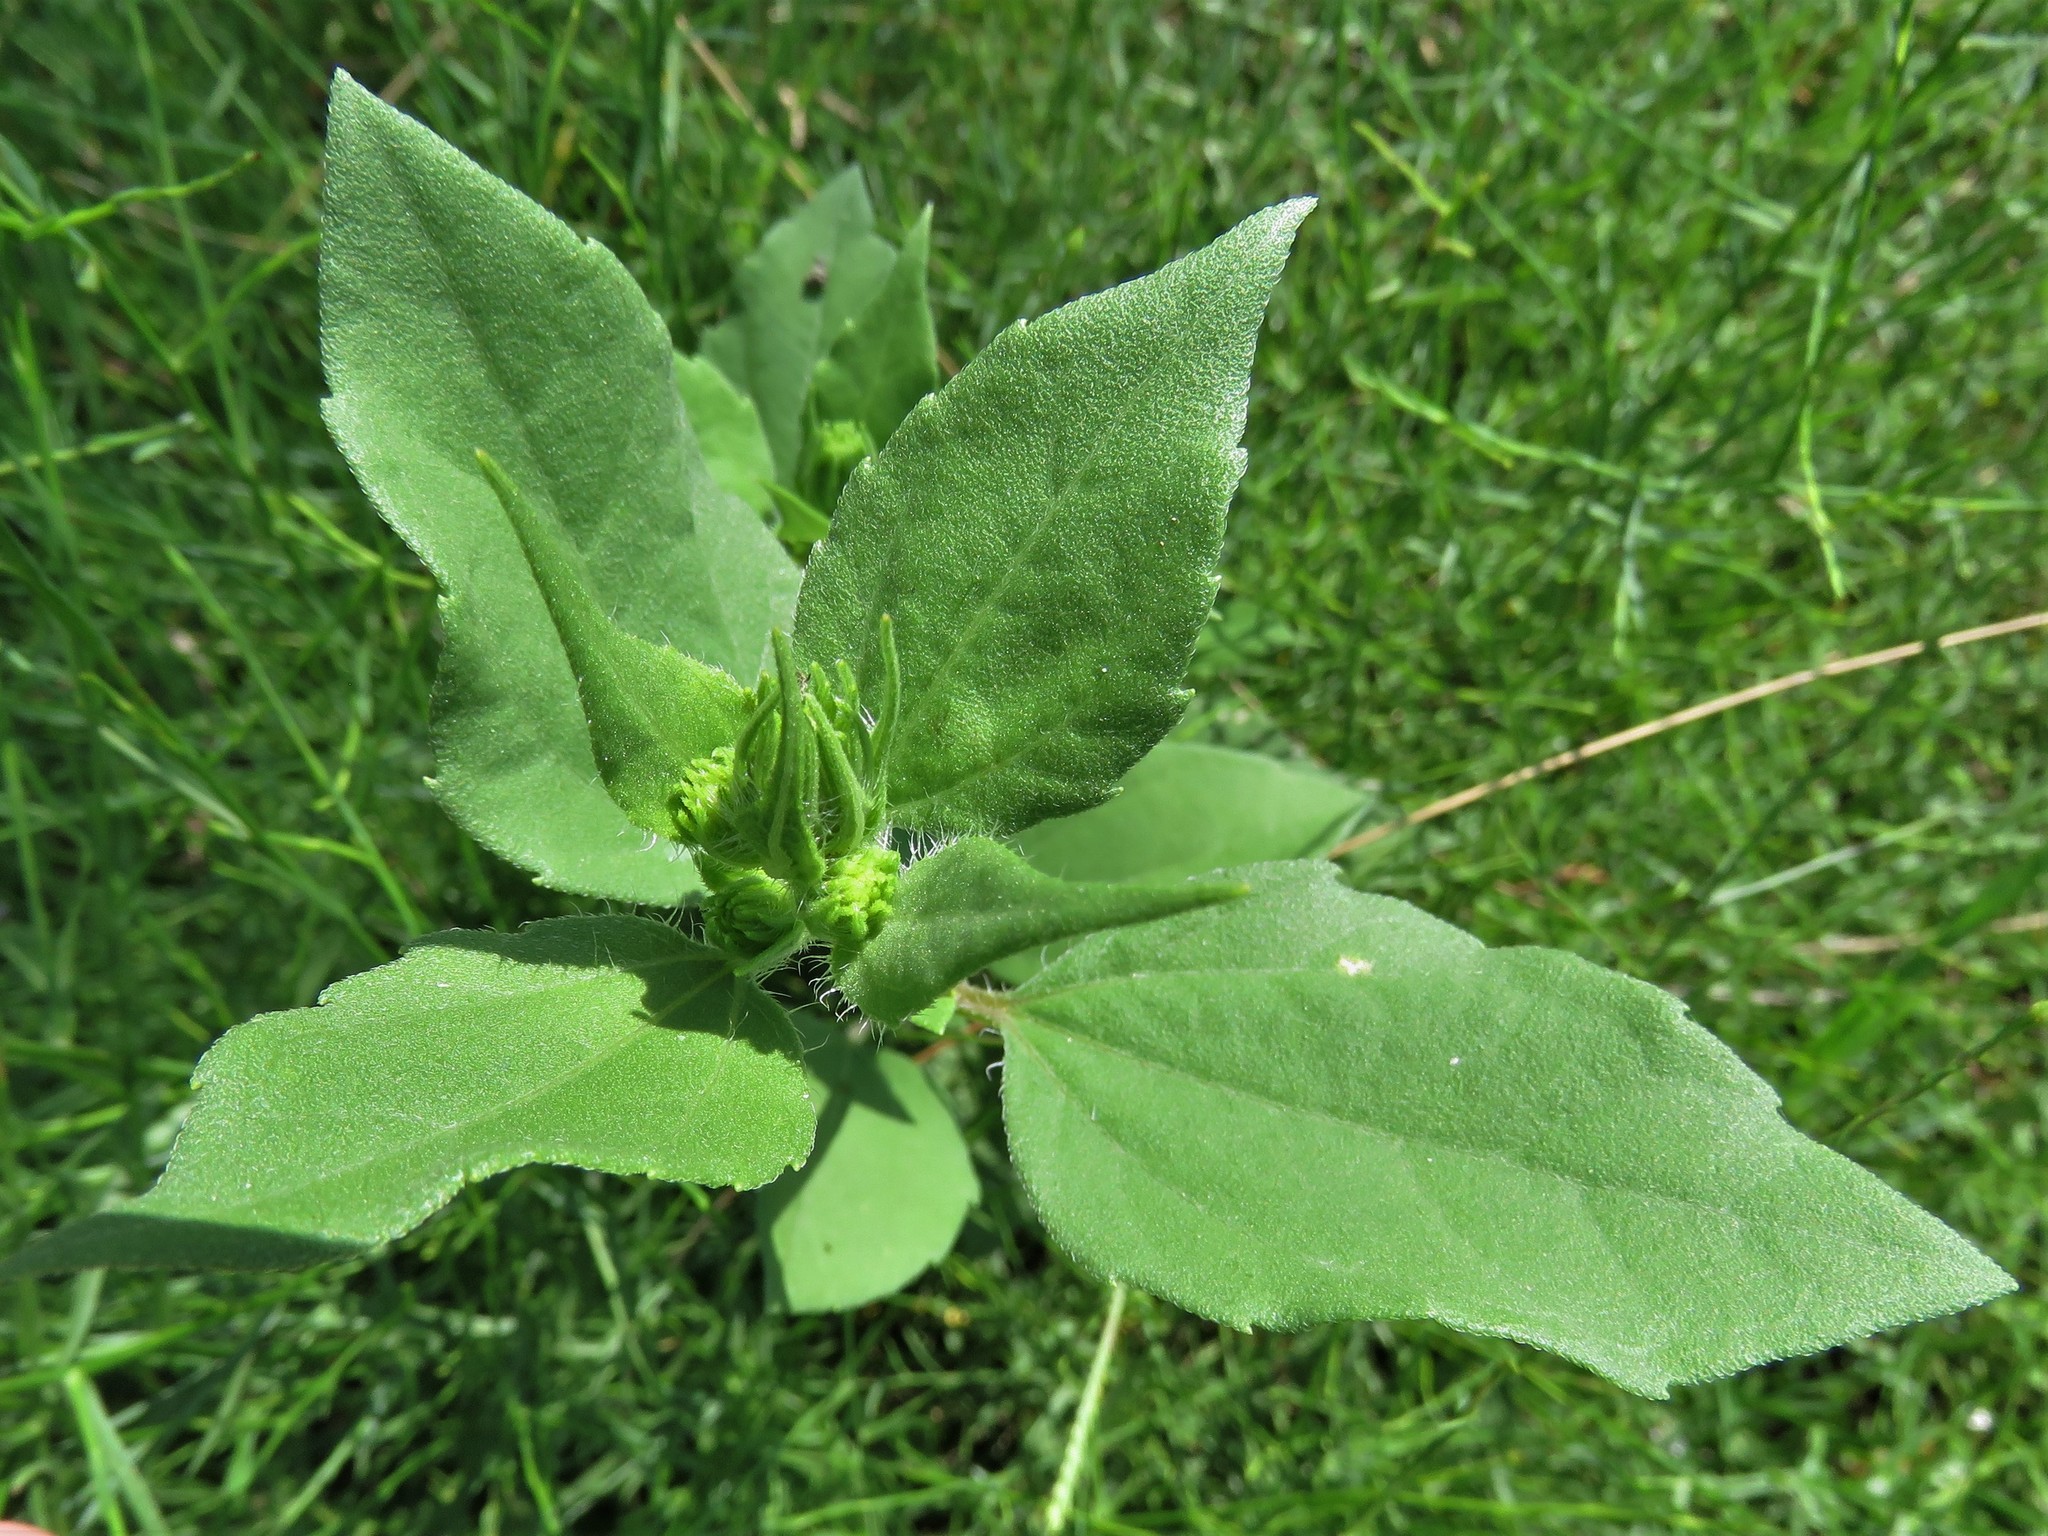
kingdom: Plantae
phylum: Tracheophyta
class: Magnoliopsida
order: Asterales
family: Asteraceae
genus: Iva
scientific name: Iva annua
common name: Marsh-elder
